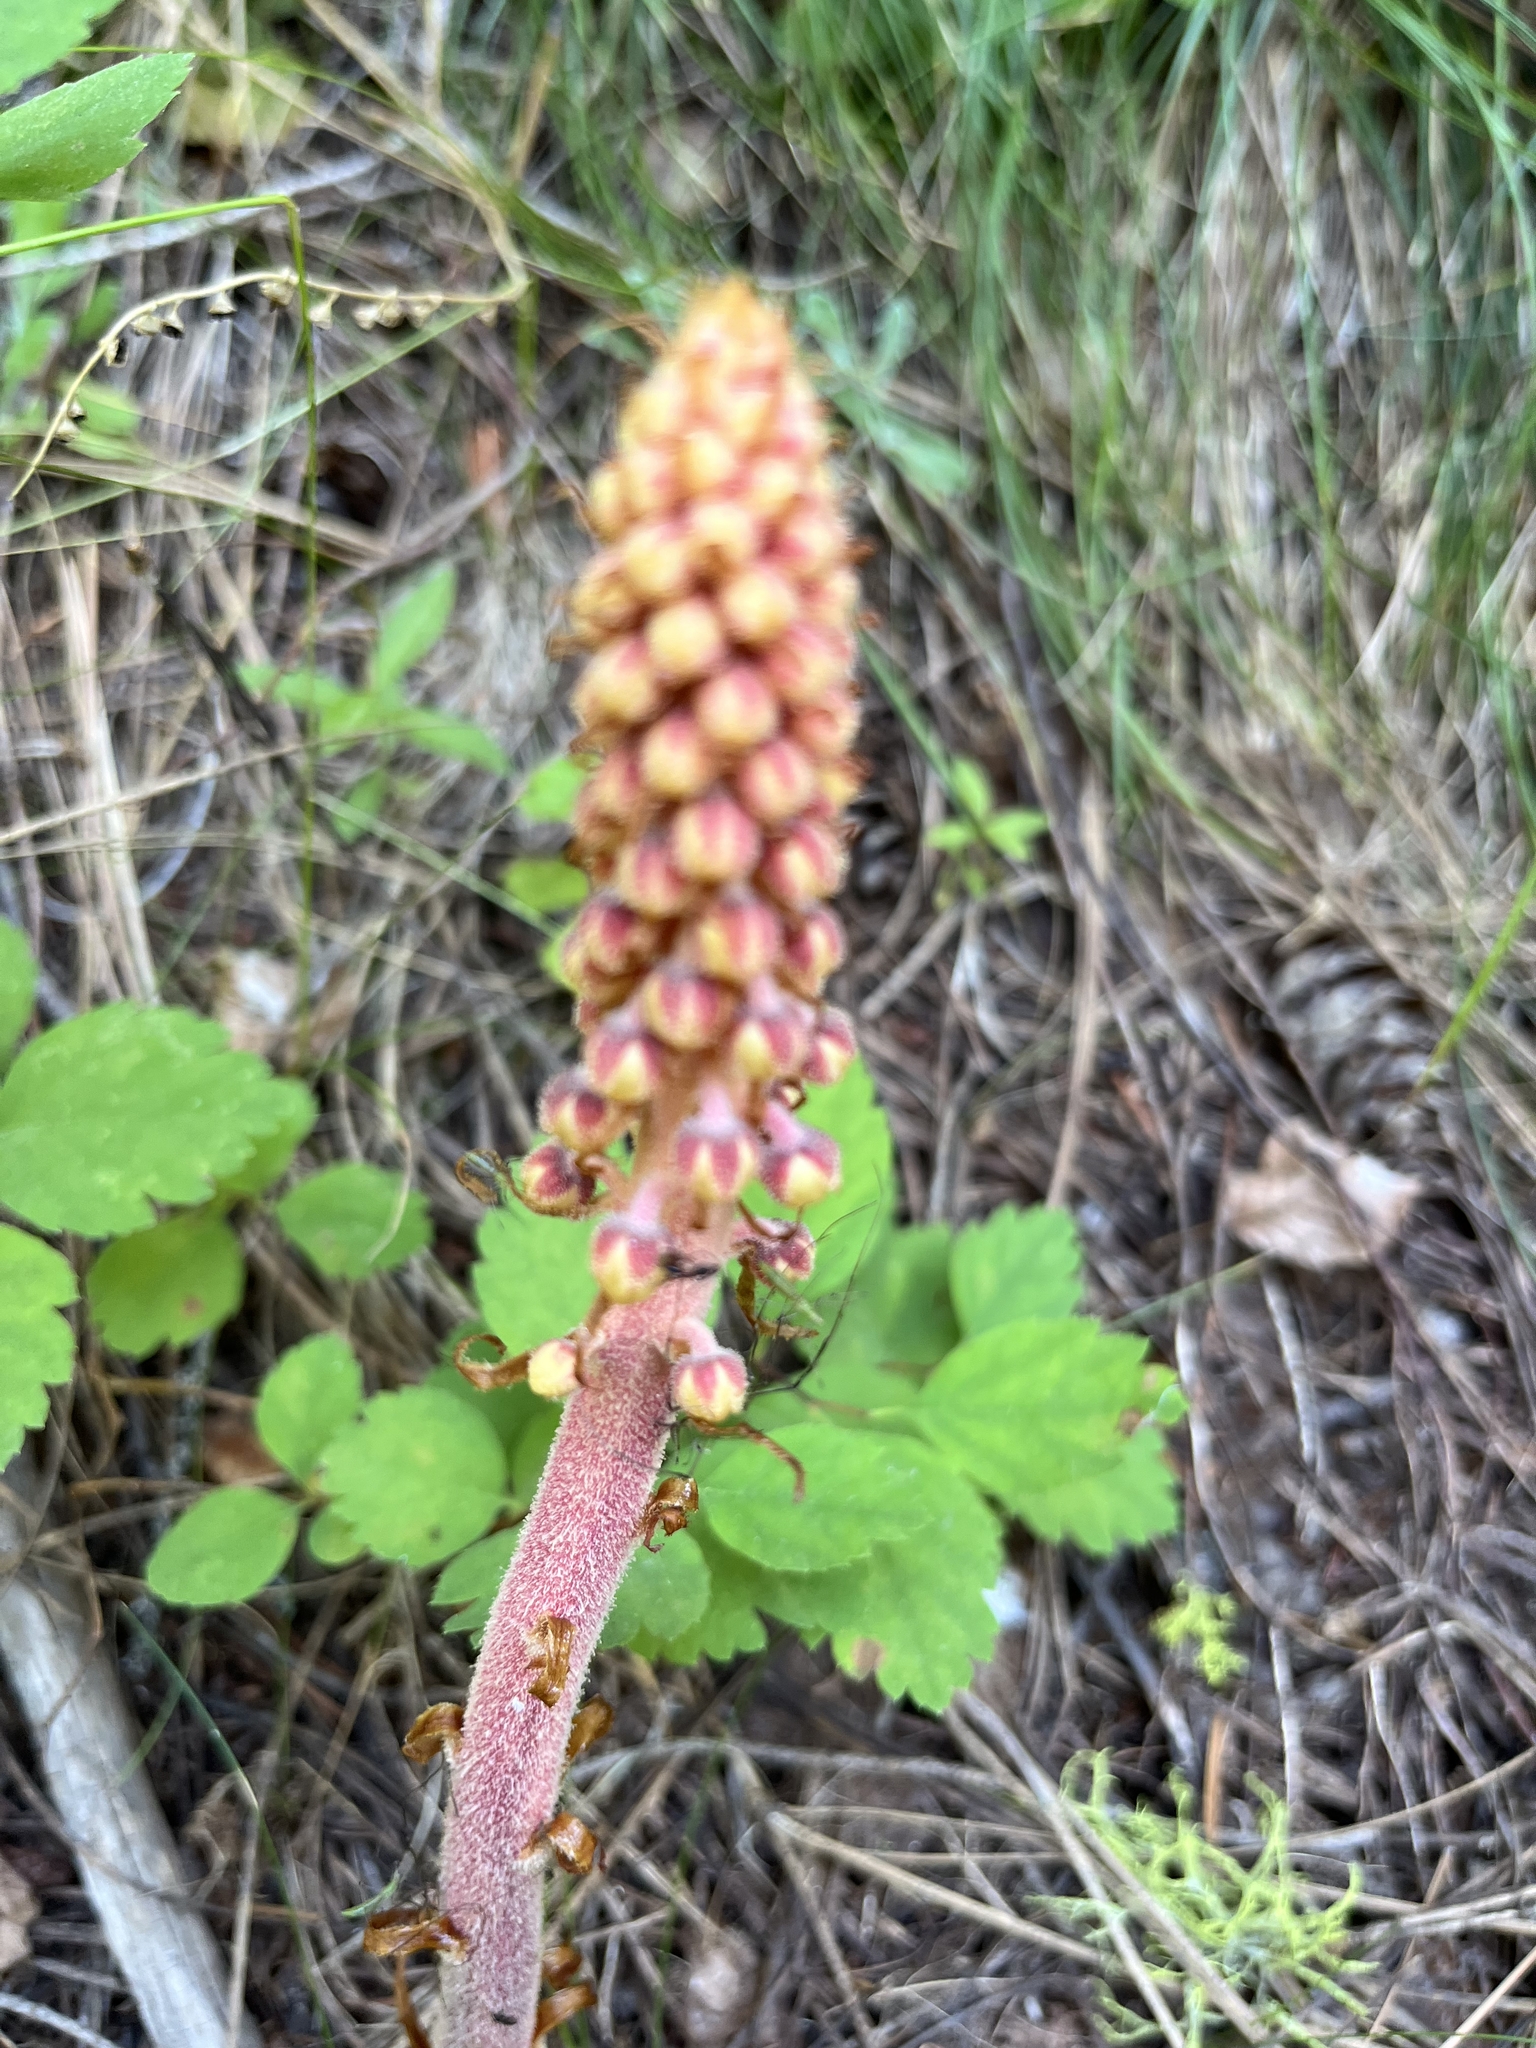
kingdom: Plantae
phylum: Tracheophyta
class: Magnoliopsida
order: Ericales
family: Ericaceae
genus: Pterospora
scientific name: Pterospora andromedea
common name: Giant bird's-nest
